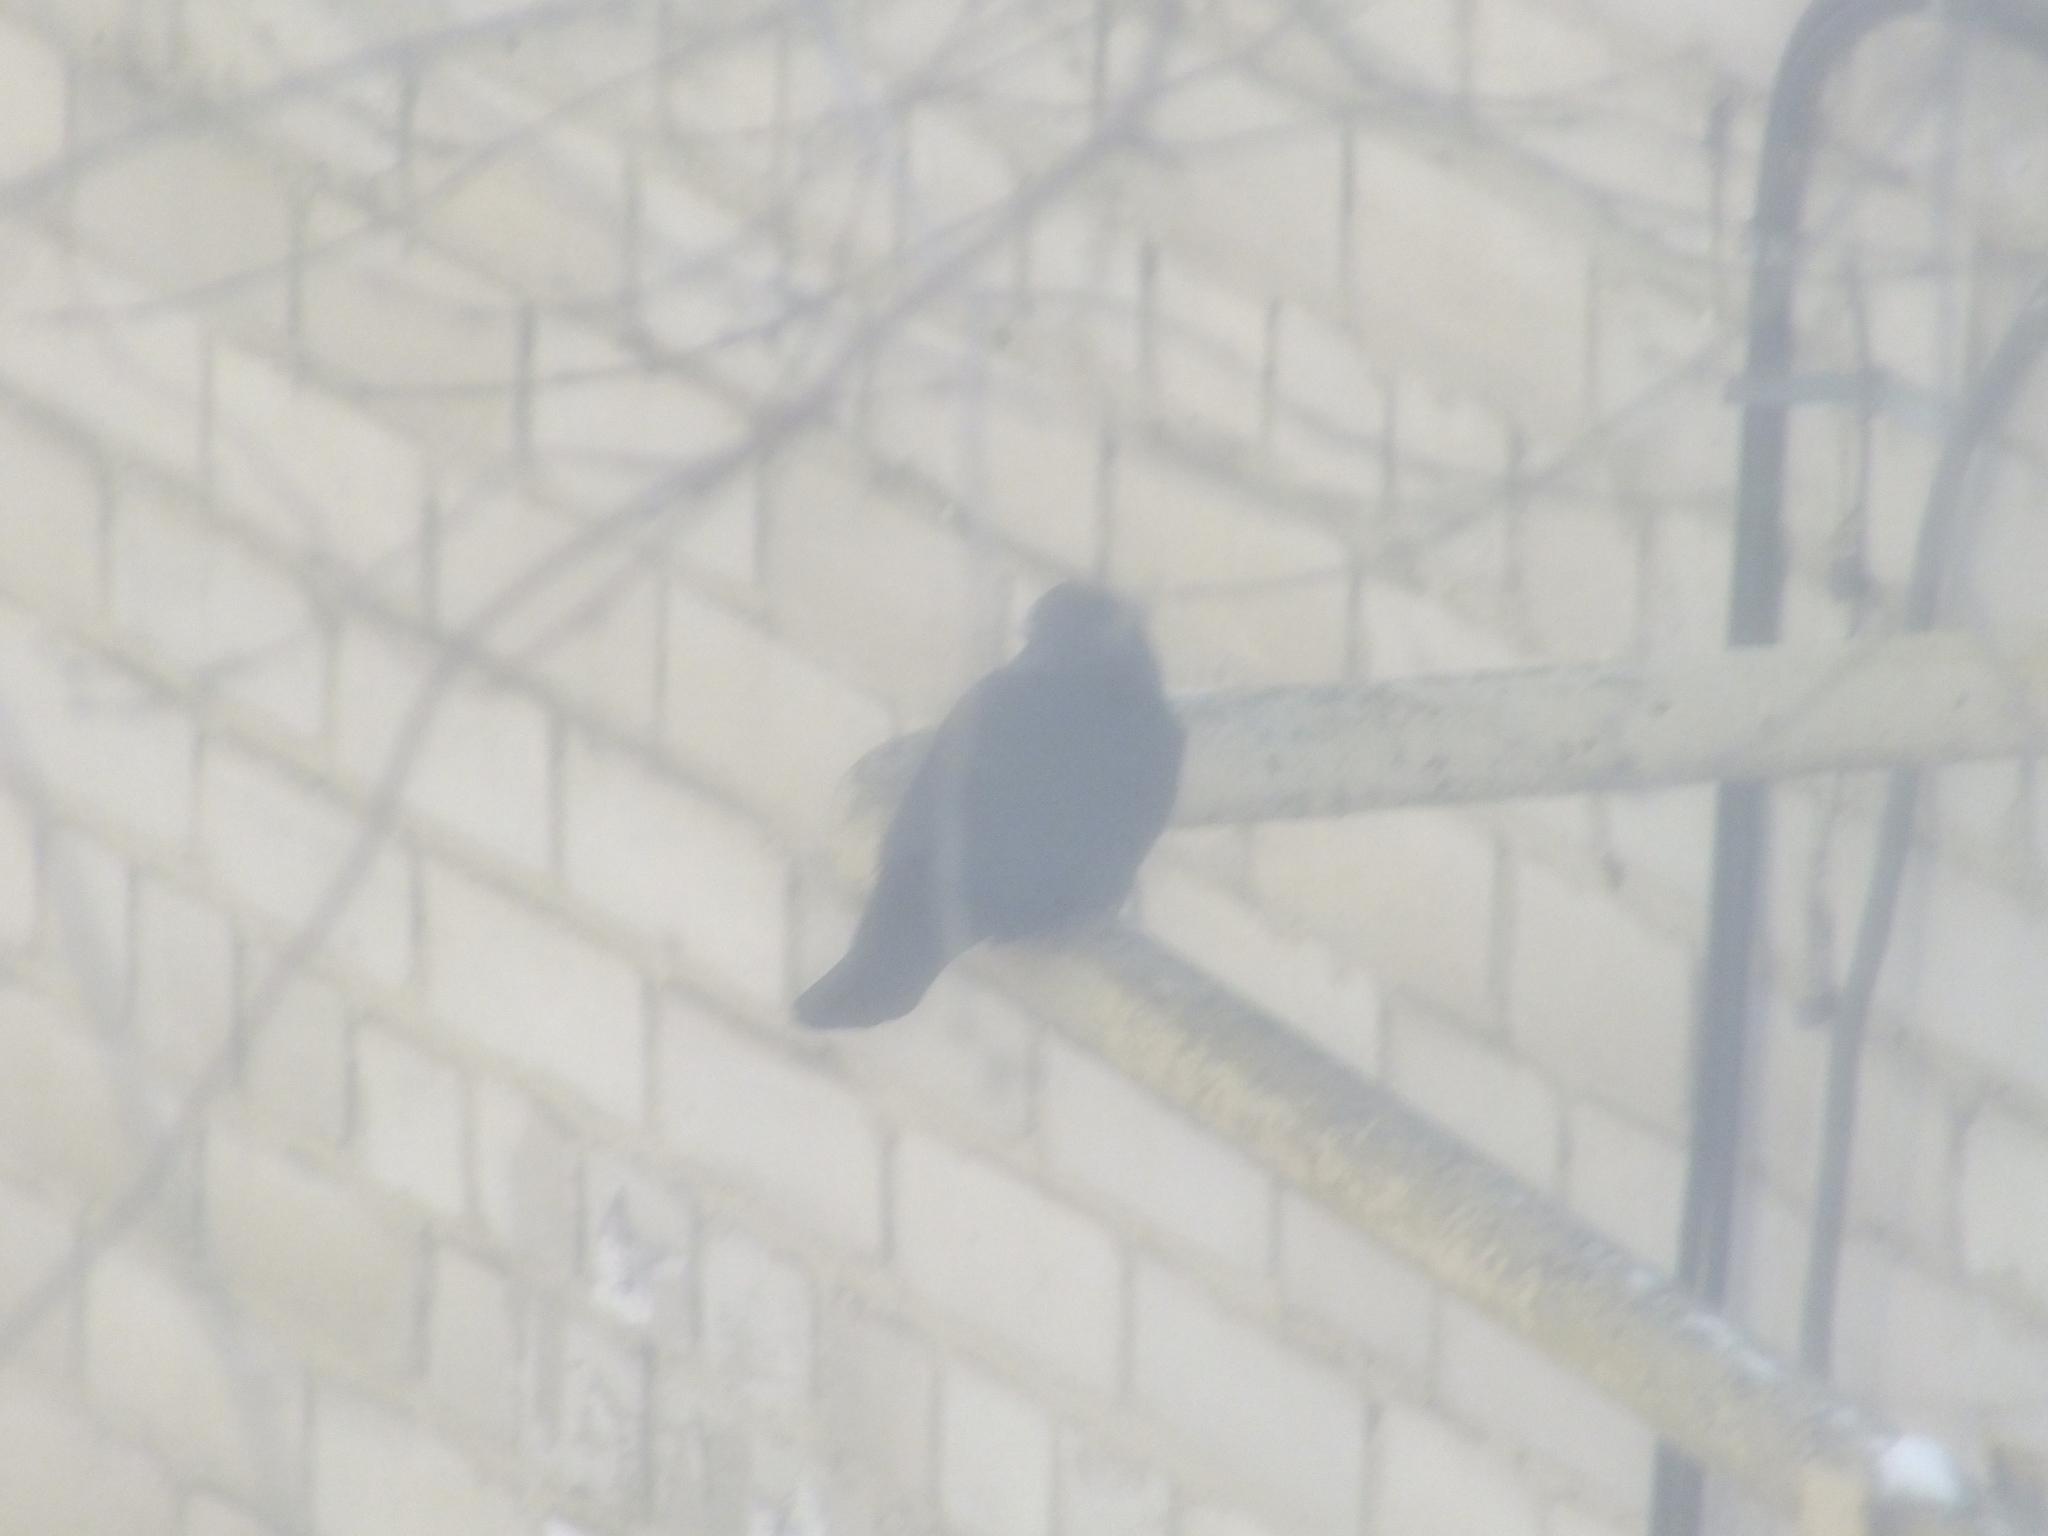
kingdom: Animalia
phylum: Chordata
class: Aves
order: Passeriformes
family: Corvidae
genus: Coloeus
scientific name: Coloeus monedula
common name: Western jackdaw
